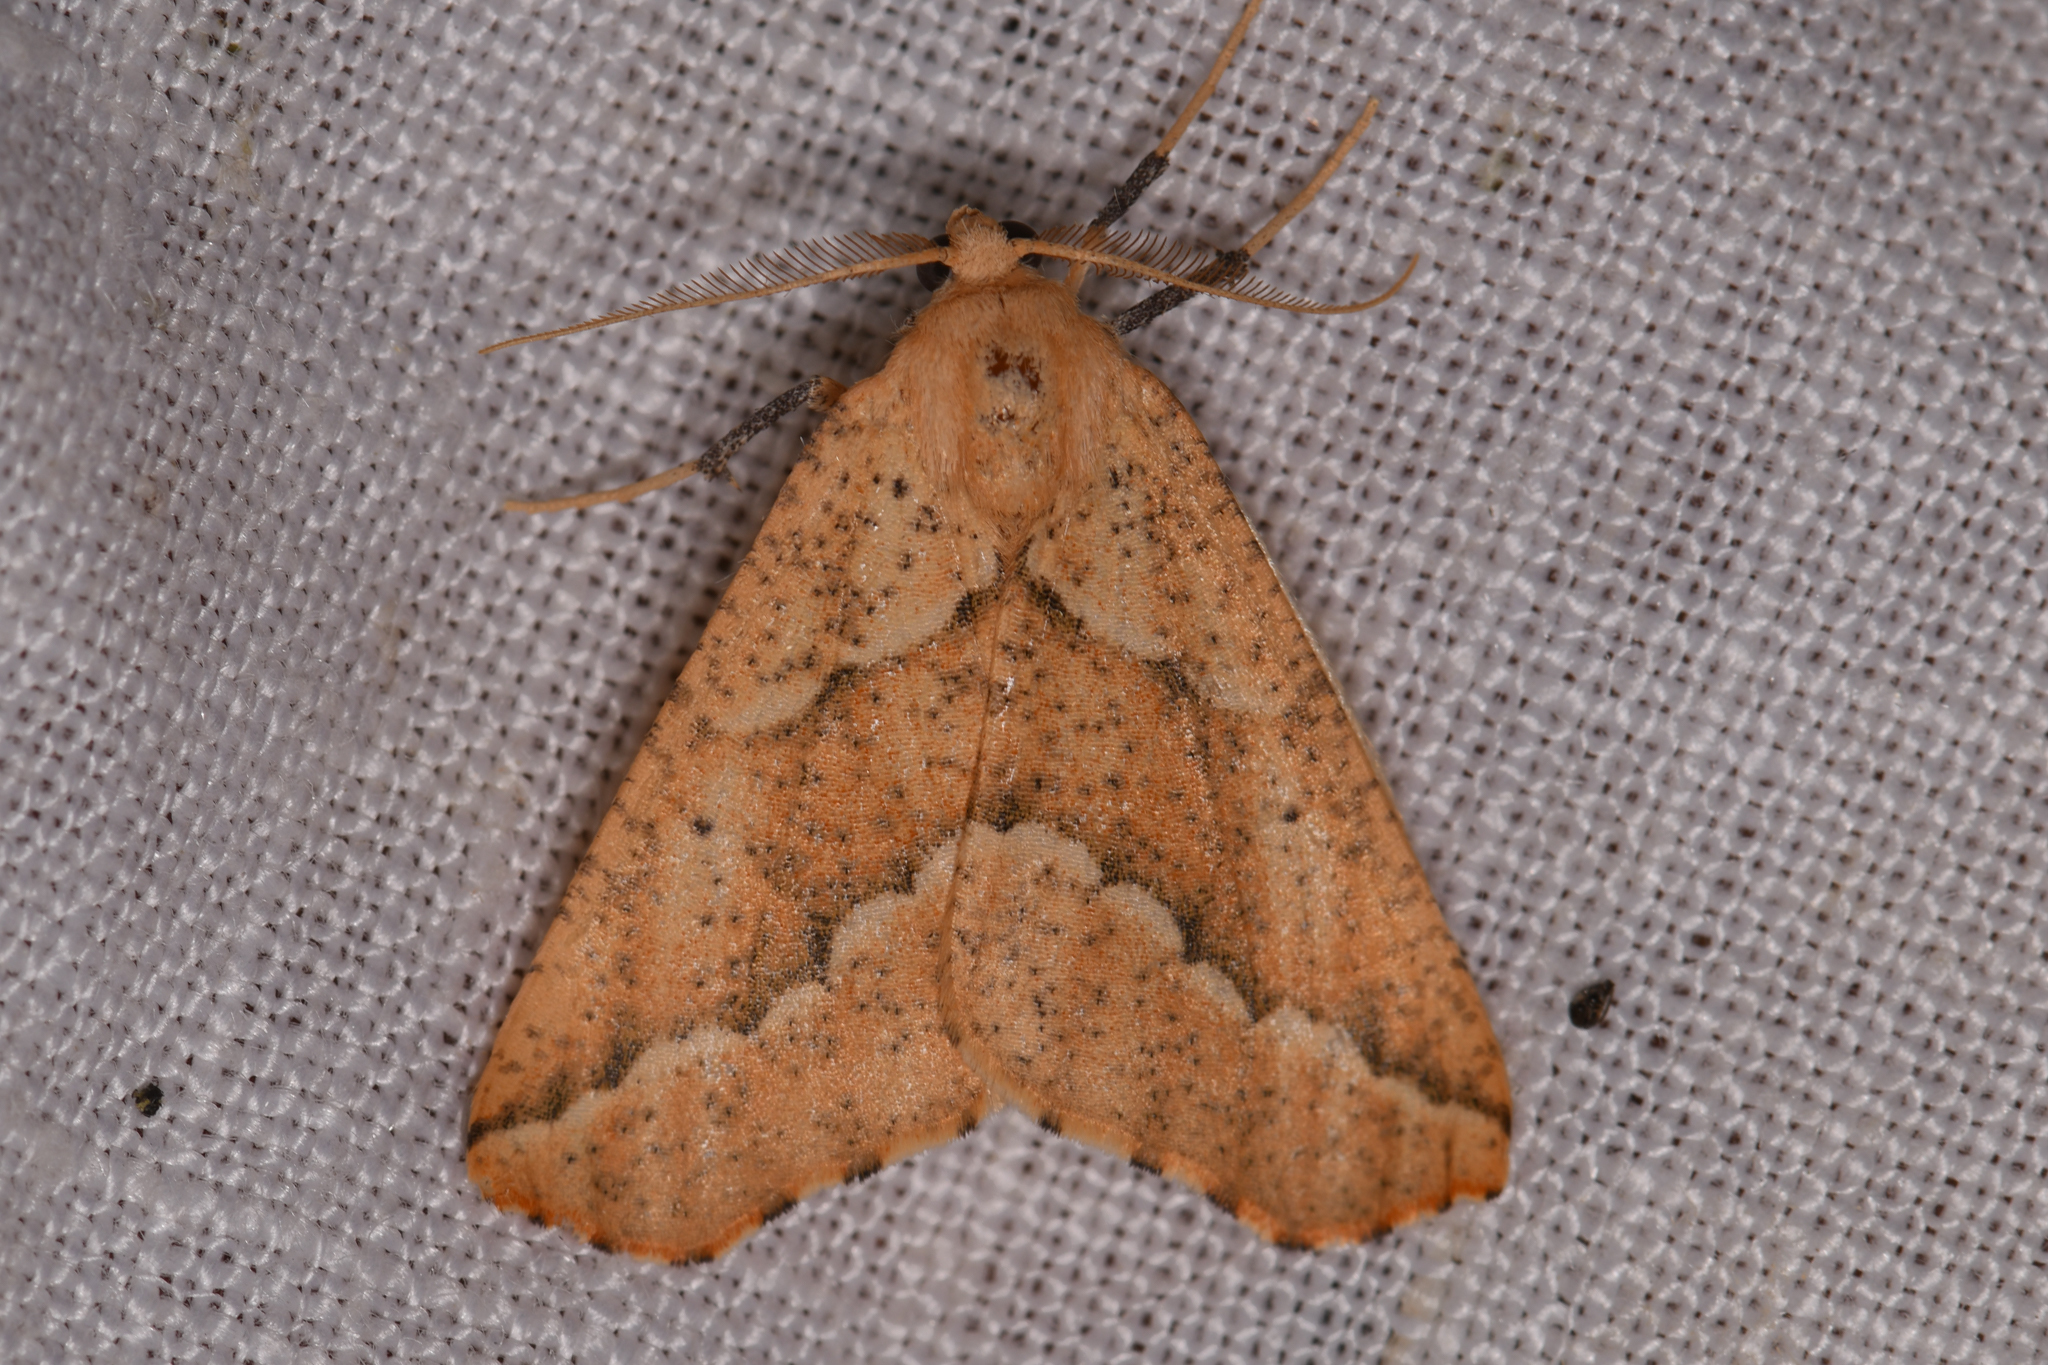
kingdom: Animalia
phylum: Arthropoda
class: Insecta
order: Lepidoptera
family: Geometridae
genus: Sicya
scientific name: Sicya morsicaria
